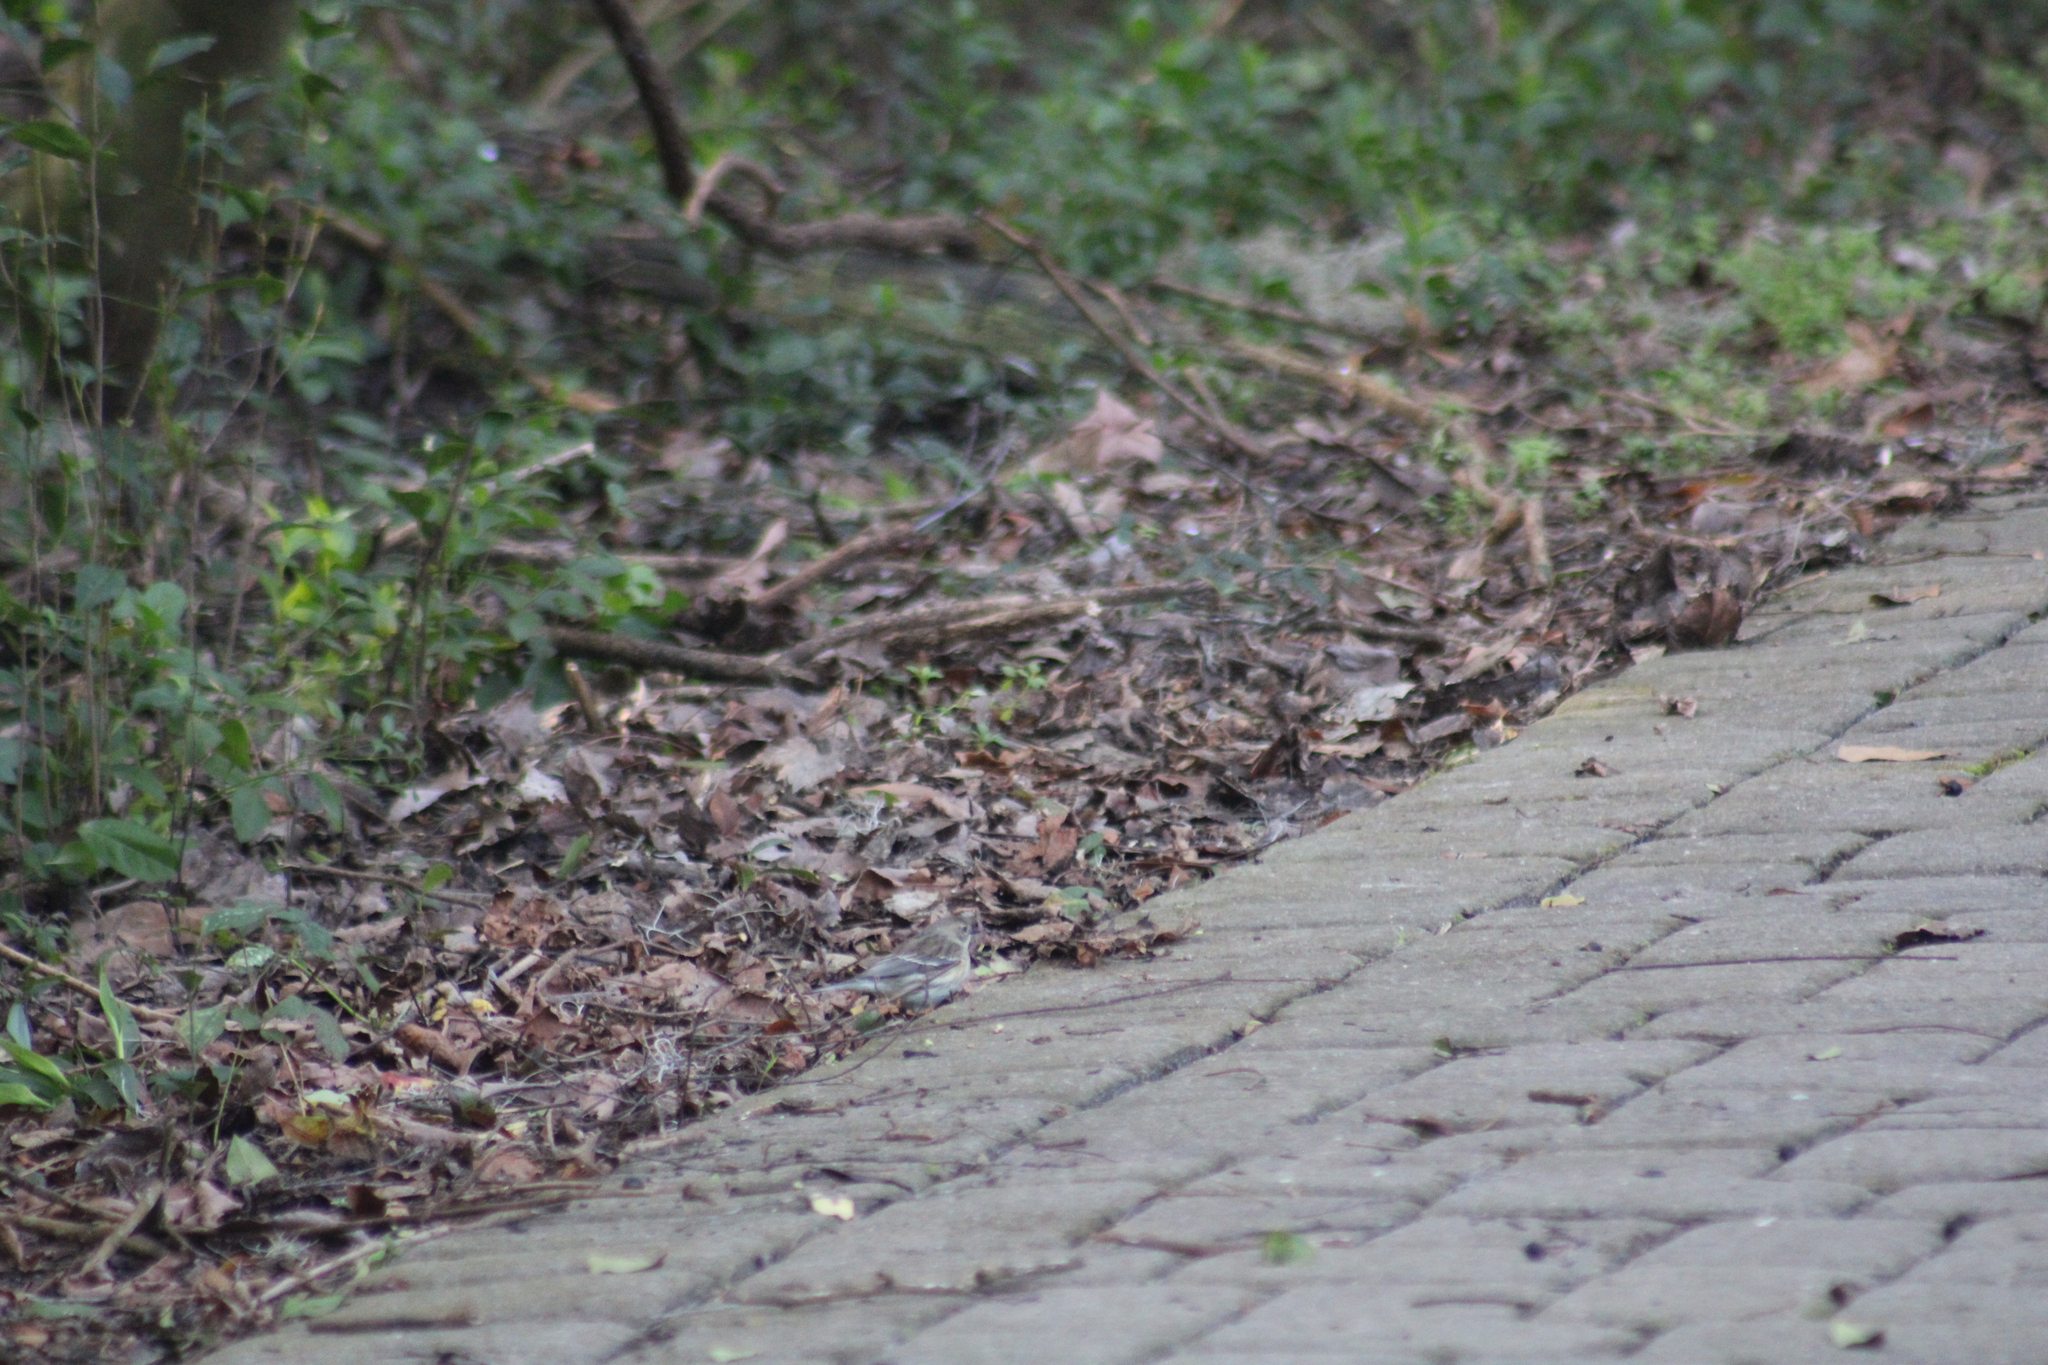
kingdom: Animalia
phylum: Chordata
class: Aves
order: Passeriformes
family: Parulidae
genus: Setophaga
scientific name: Setophaga coronata
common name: Myrtle warbler
